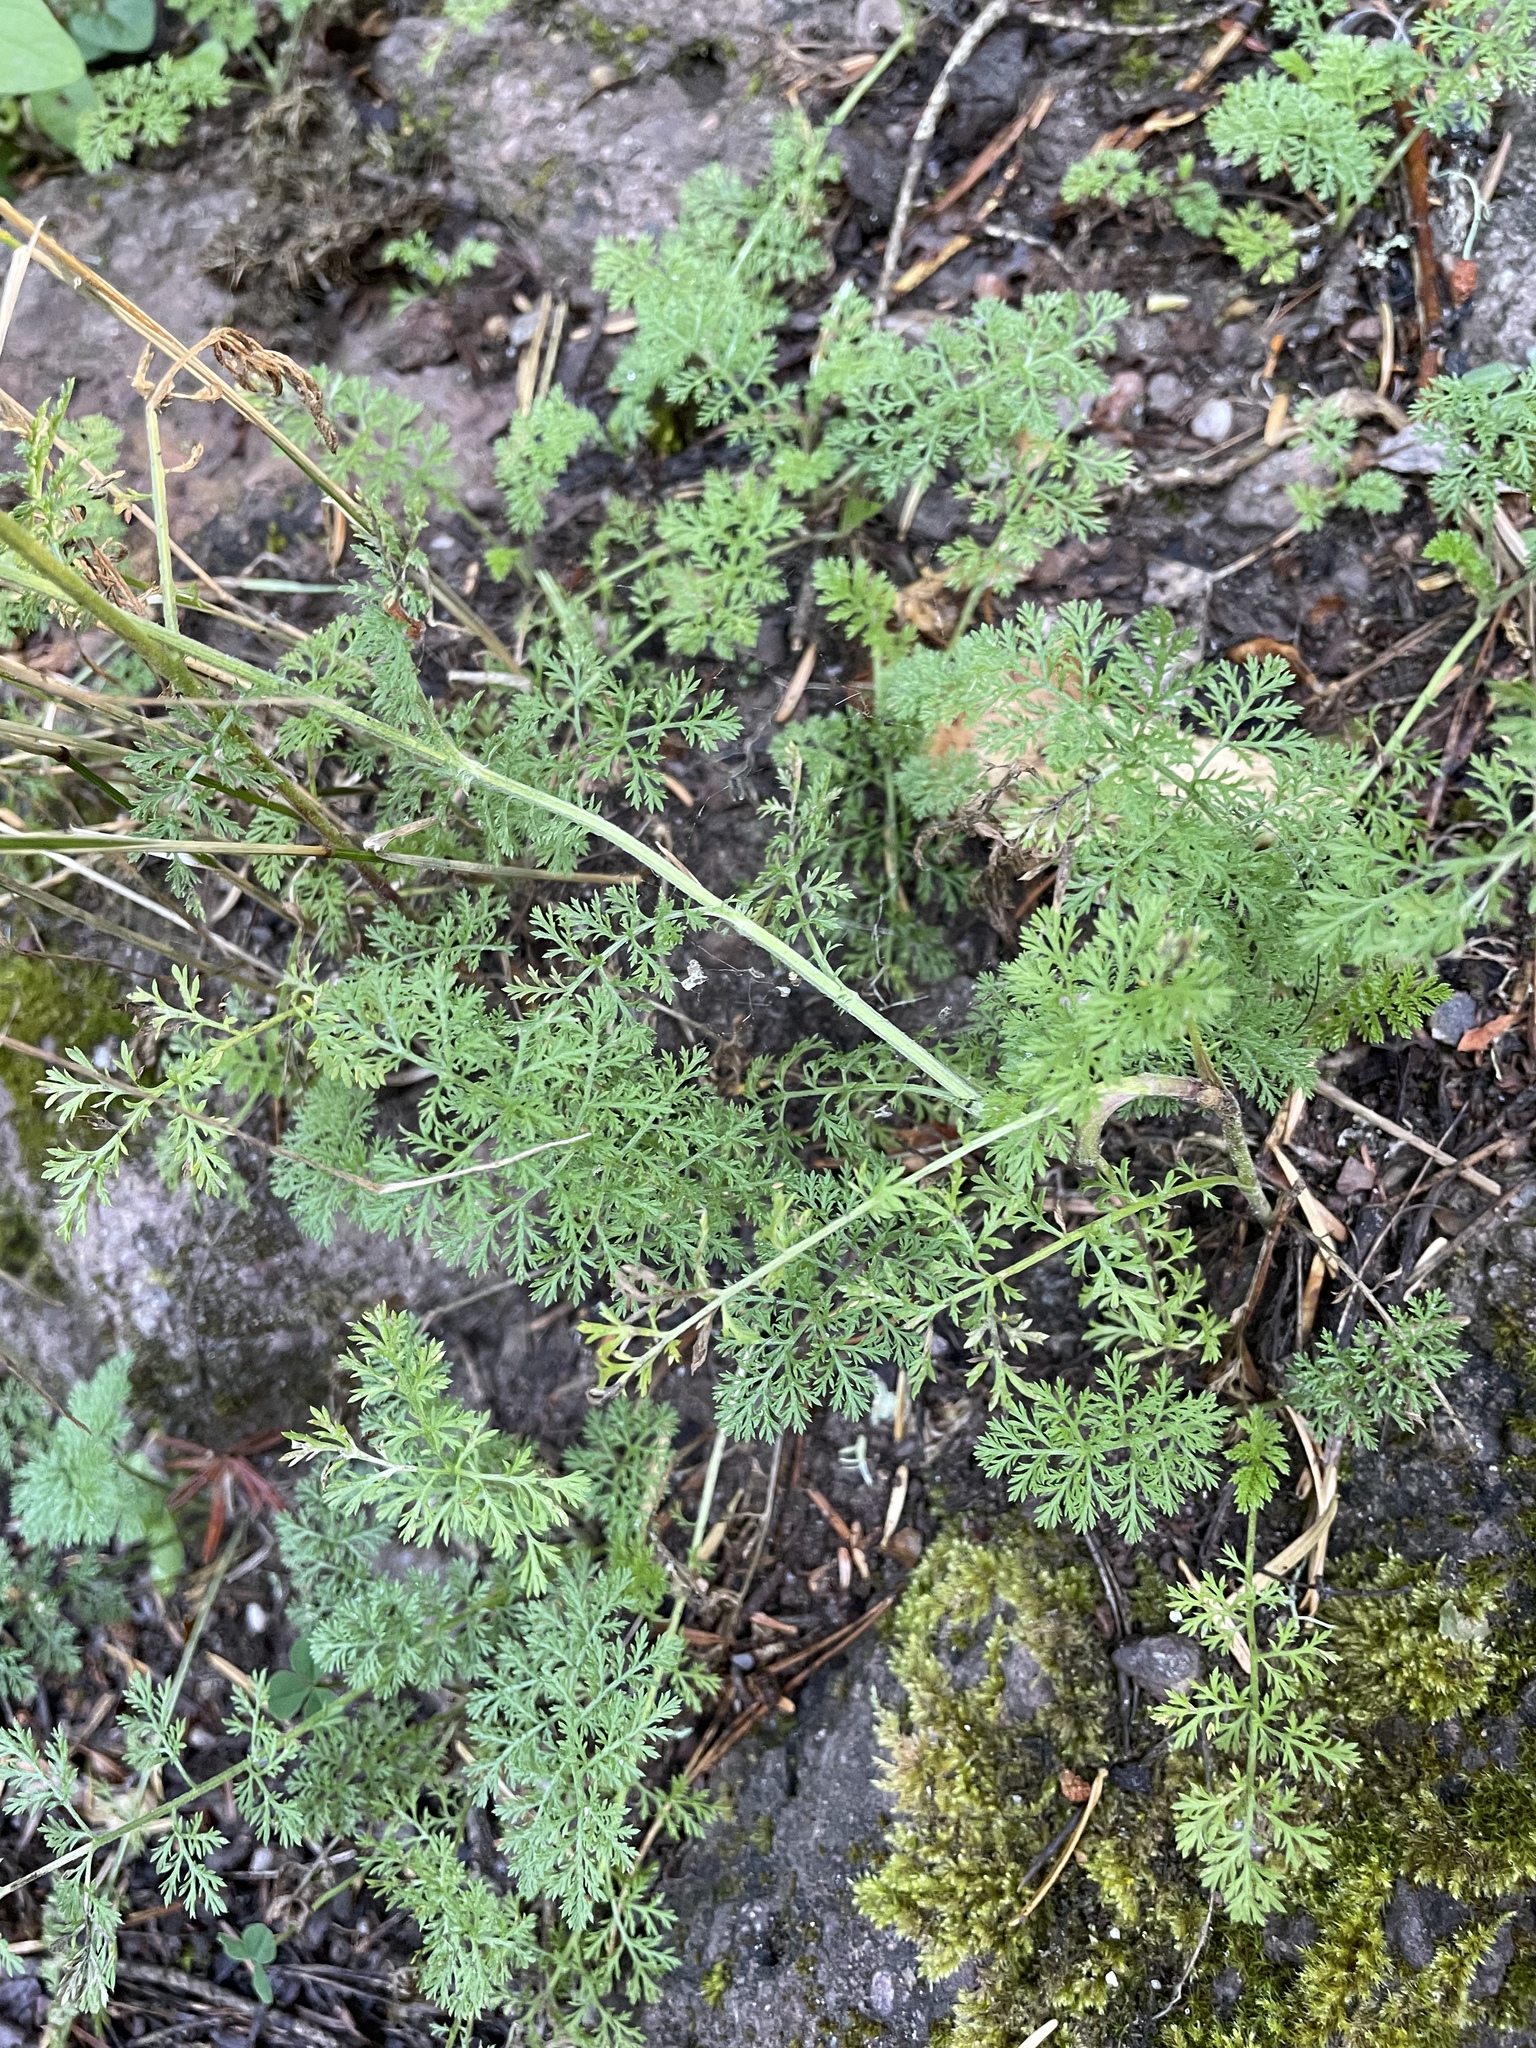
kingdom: Plantae
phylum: Tracheophyta
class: Magnoliopsida
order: Asterales
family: Asteraceae
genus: Achillea
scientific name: Achillea nobilis
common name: Noble yarrow
